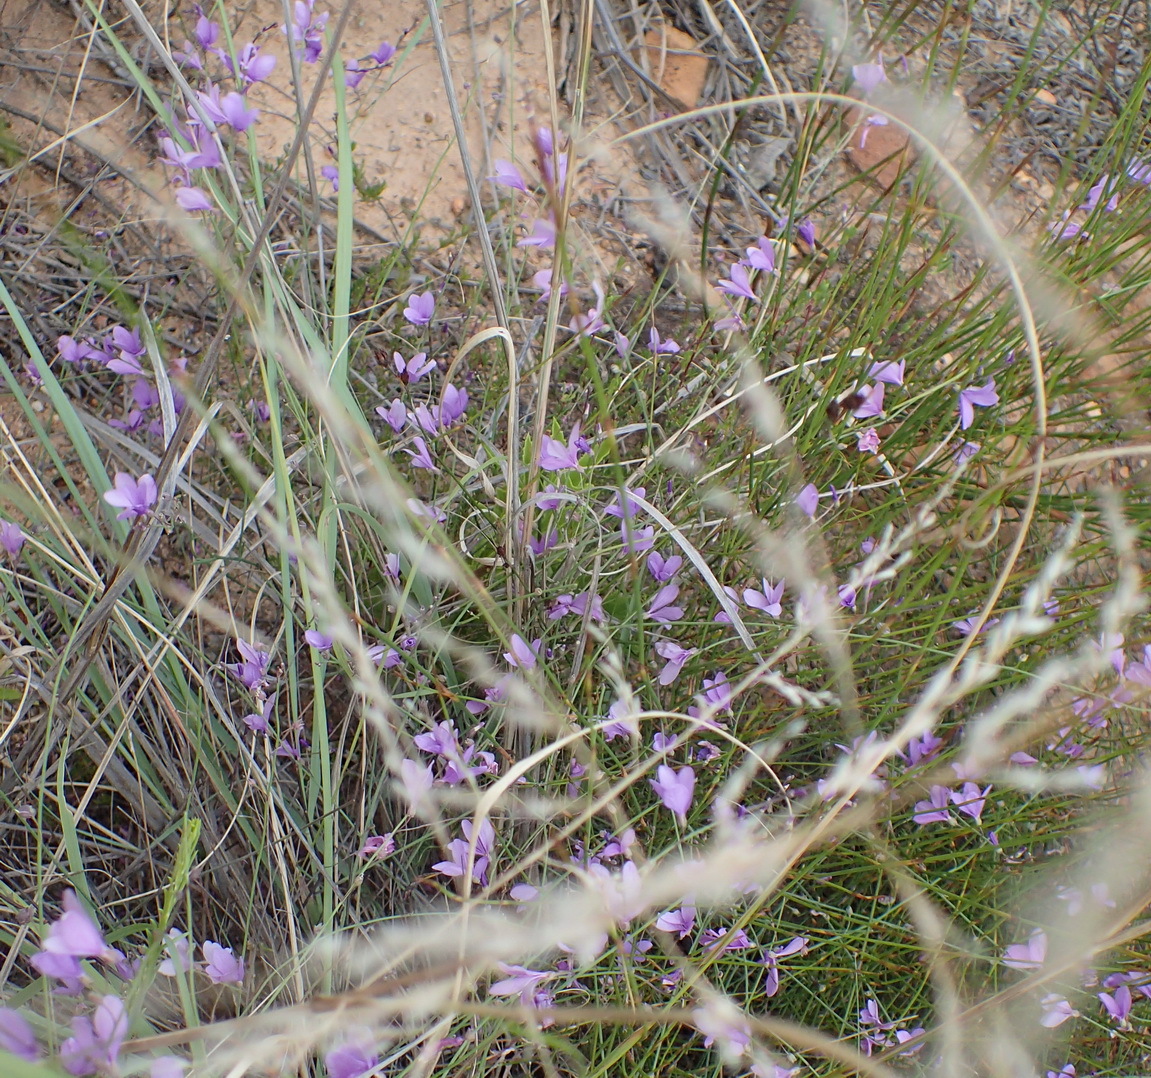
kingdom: Plantae
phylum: Tracheophyta
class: Magnoliopsida
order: Brassicales
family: Brassicaceae
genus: Heliophila
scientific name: Heliophila juncea
